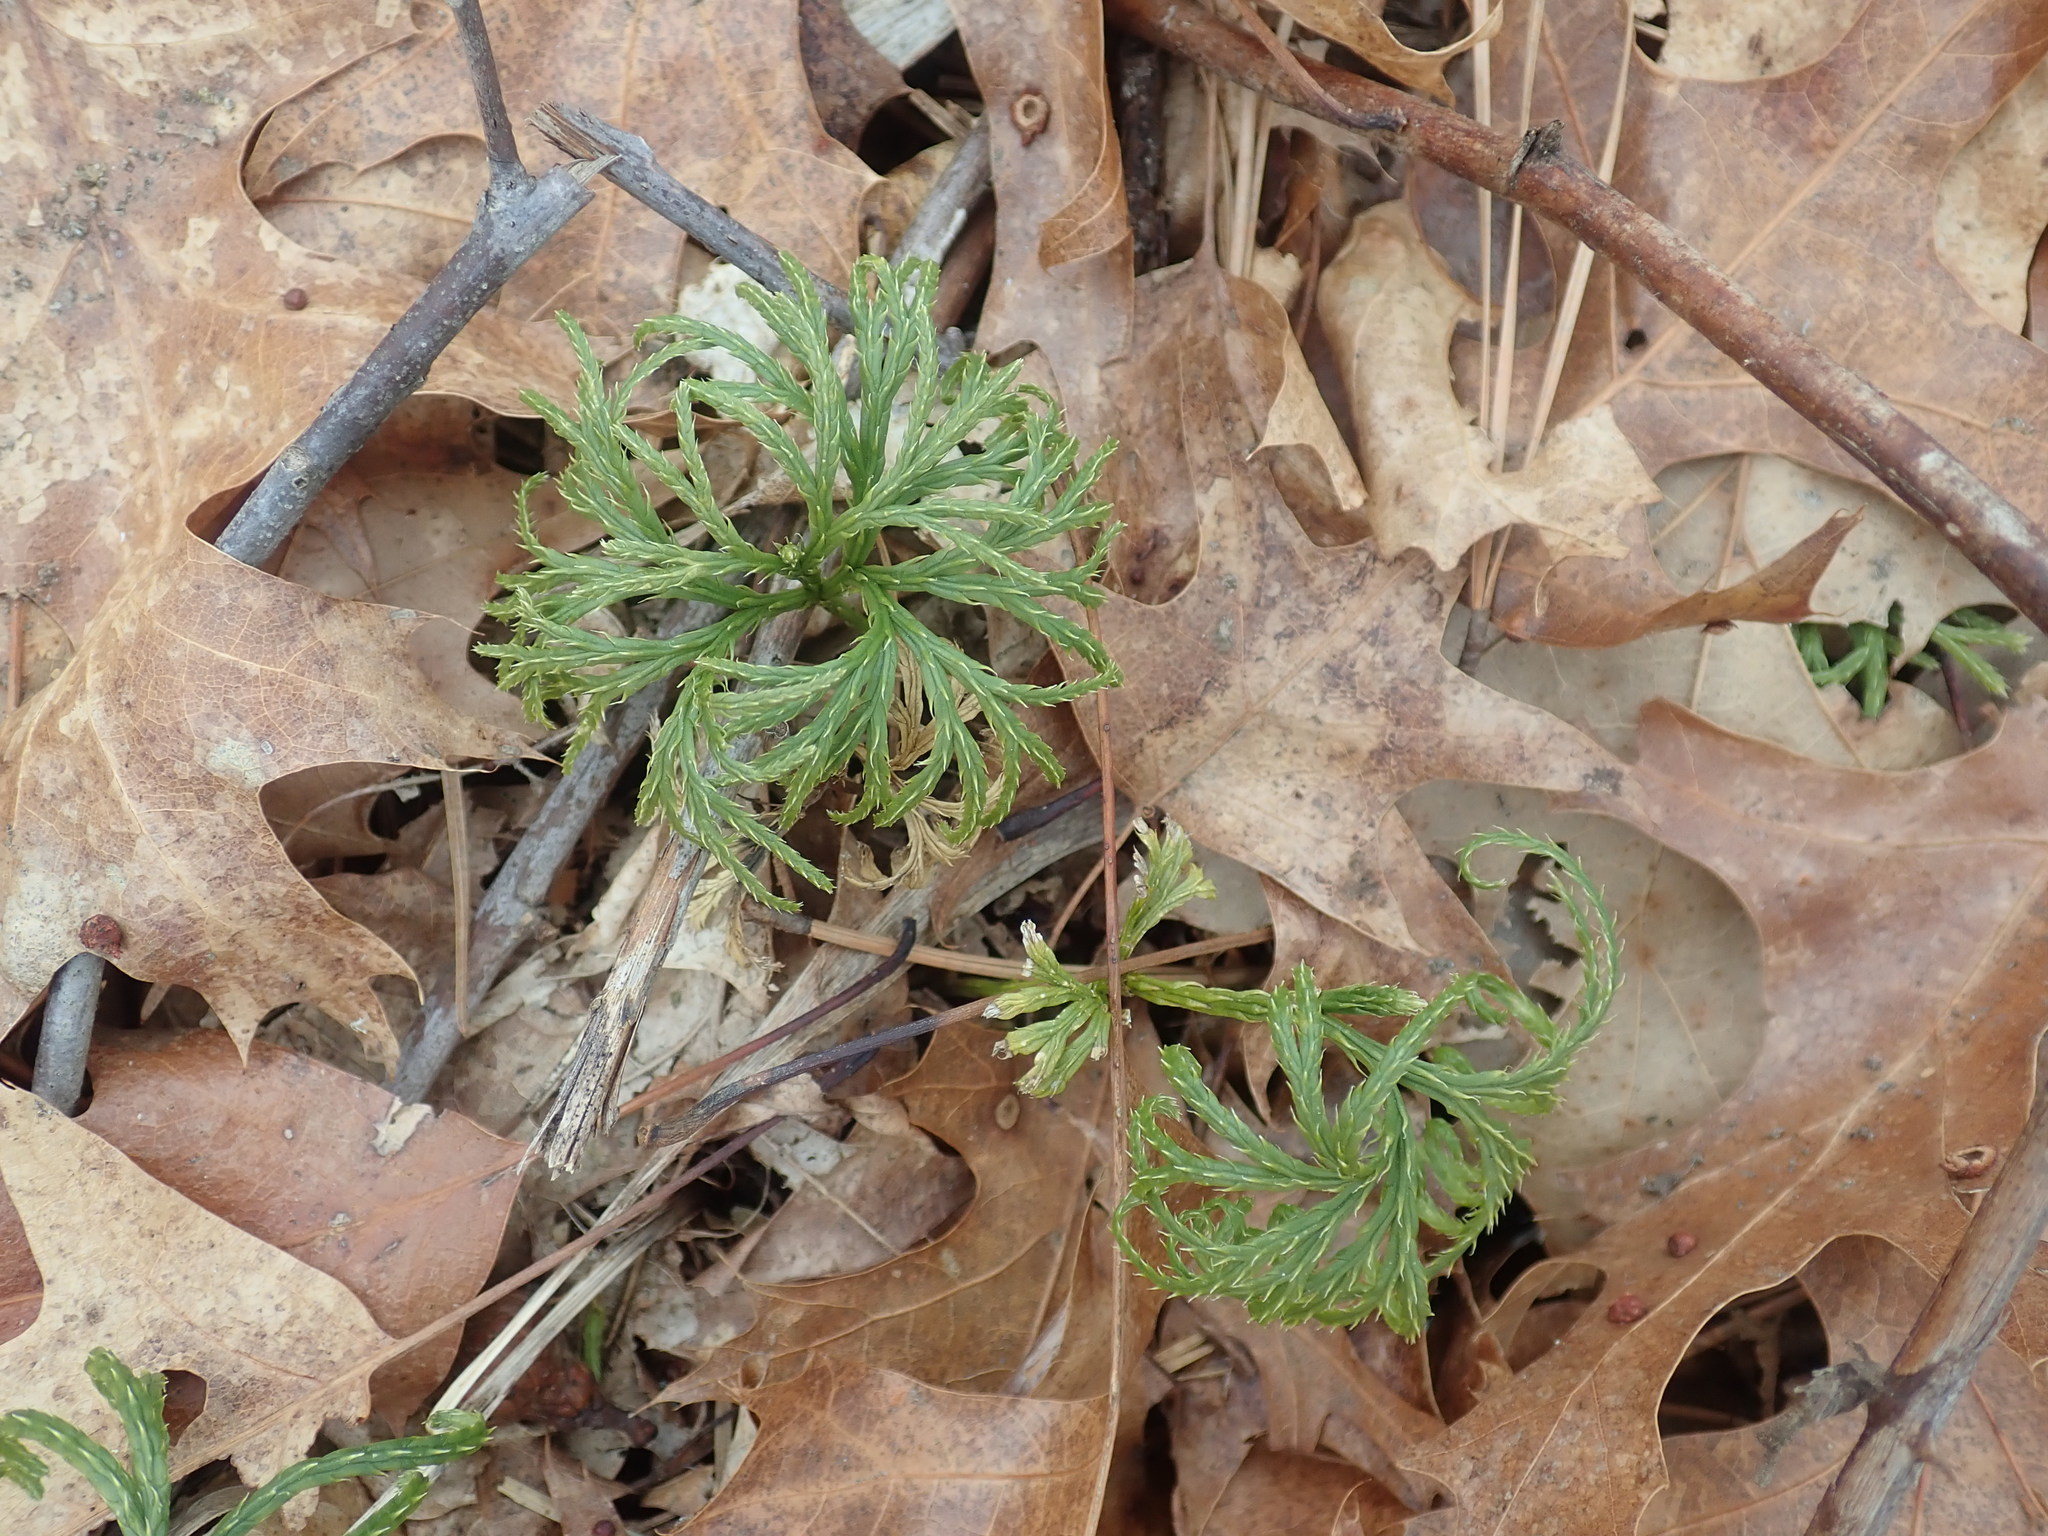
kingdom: Plantae
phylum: Tracheophyta
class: Lycopodiopsida
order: Lycopodiales
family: Lycopodiaceae
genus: Diphasiastrum
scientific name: Diphasiastrum digitatum
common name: Southern running-pine
